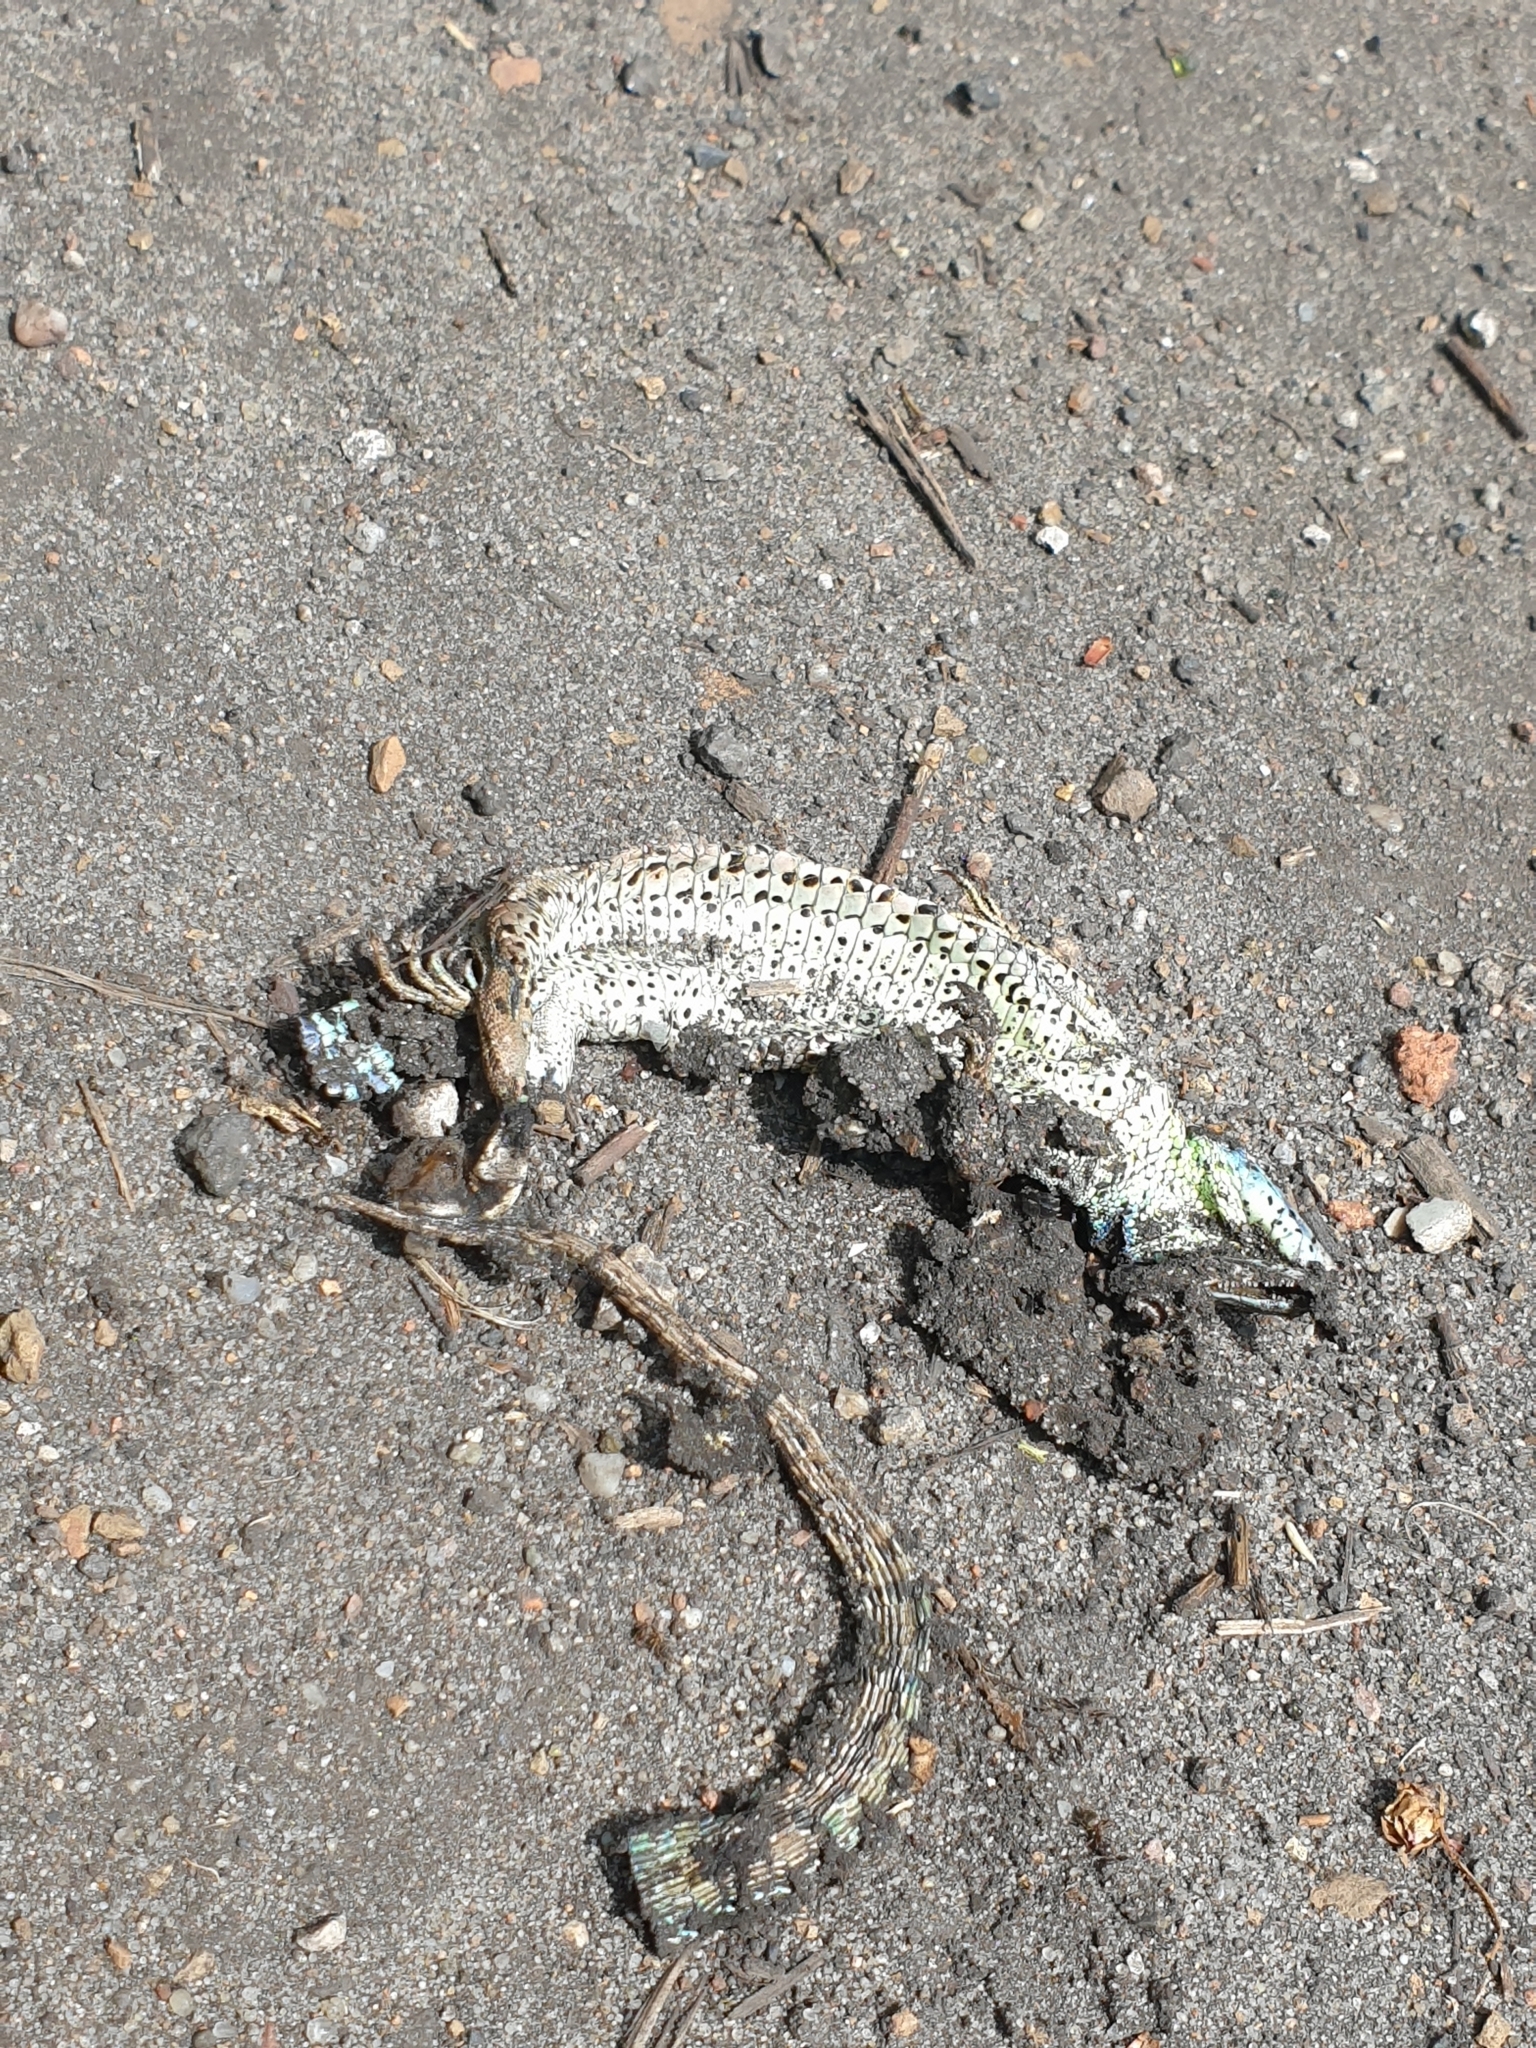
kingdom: Animalia
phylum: Chordata
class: Squamata
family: Lacertidae
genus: Lacerta
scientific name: Lacerta agilis
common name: Sand lizard
